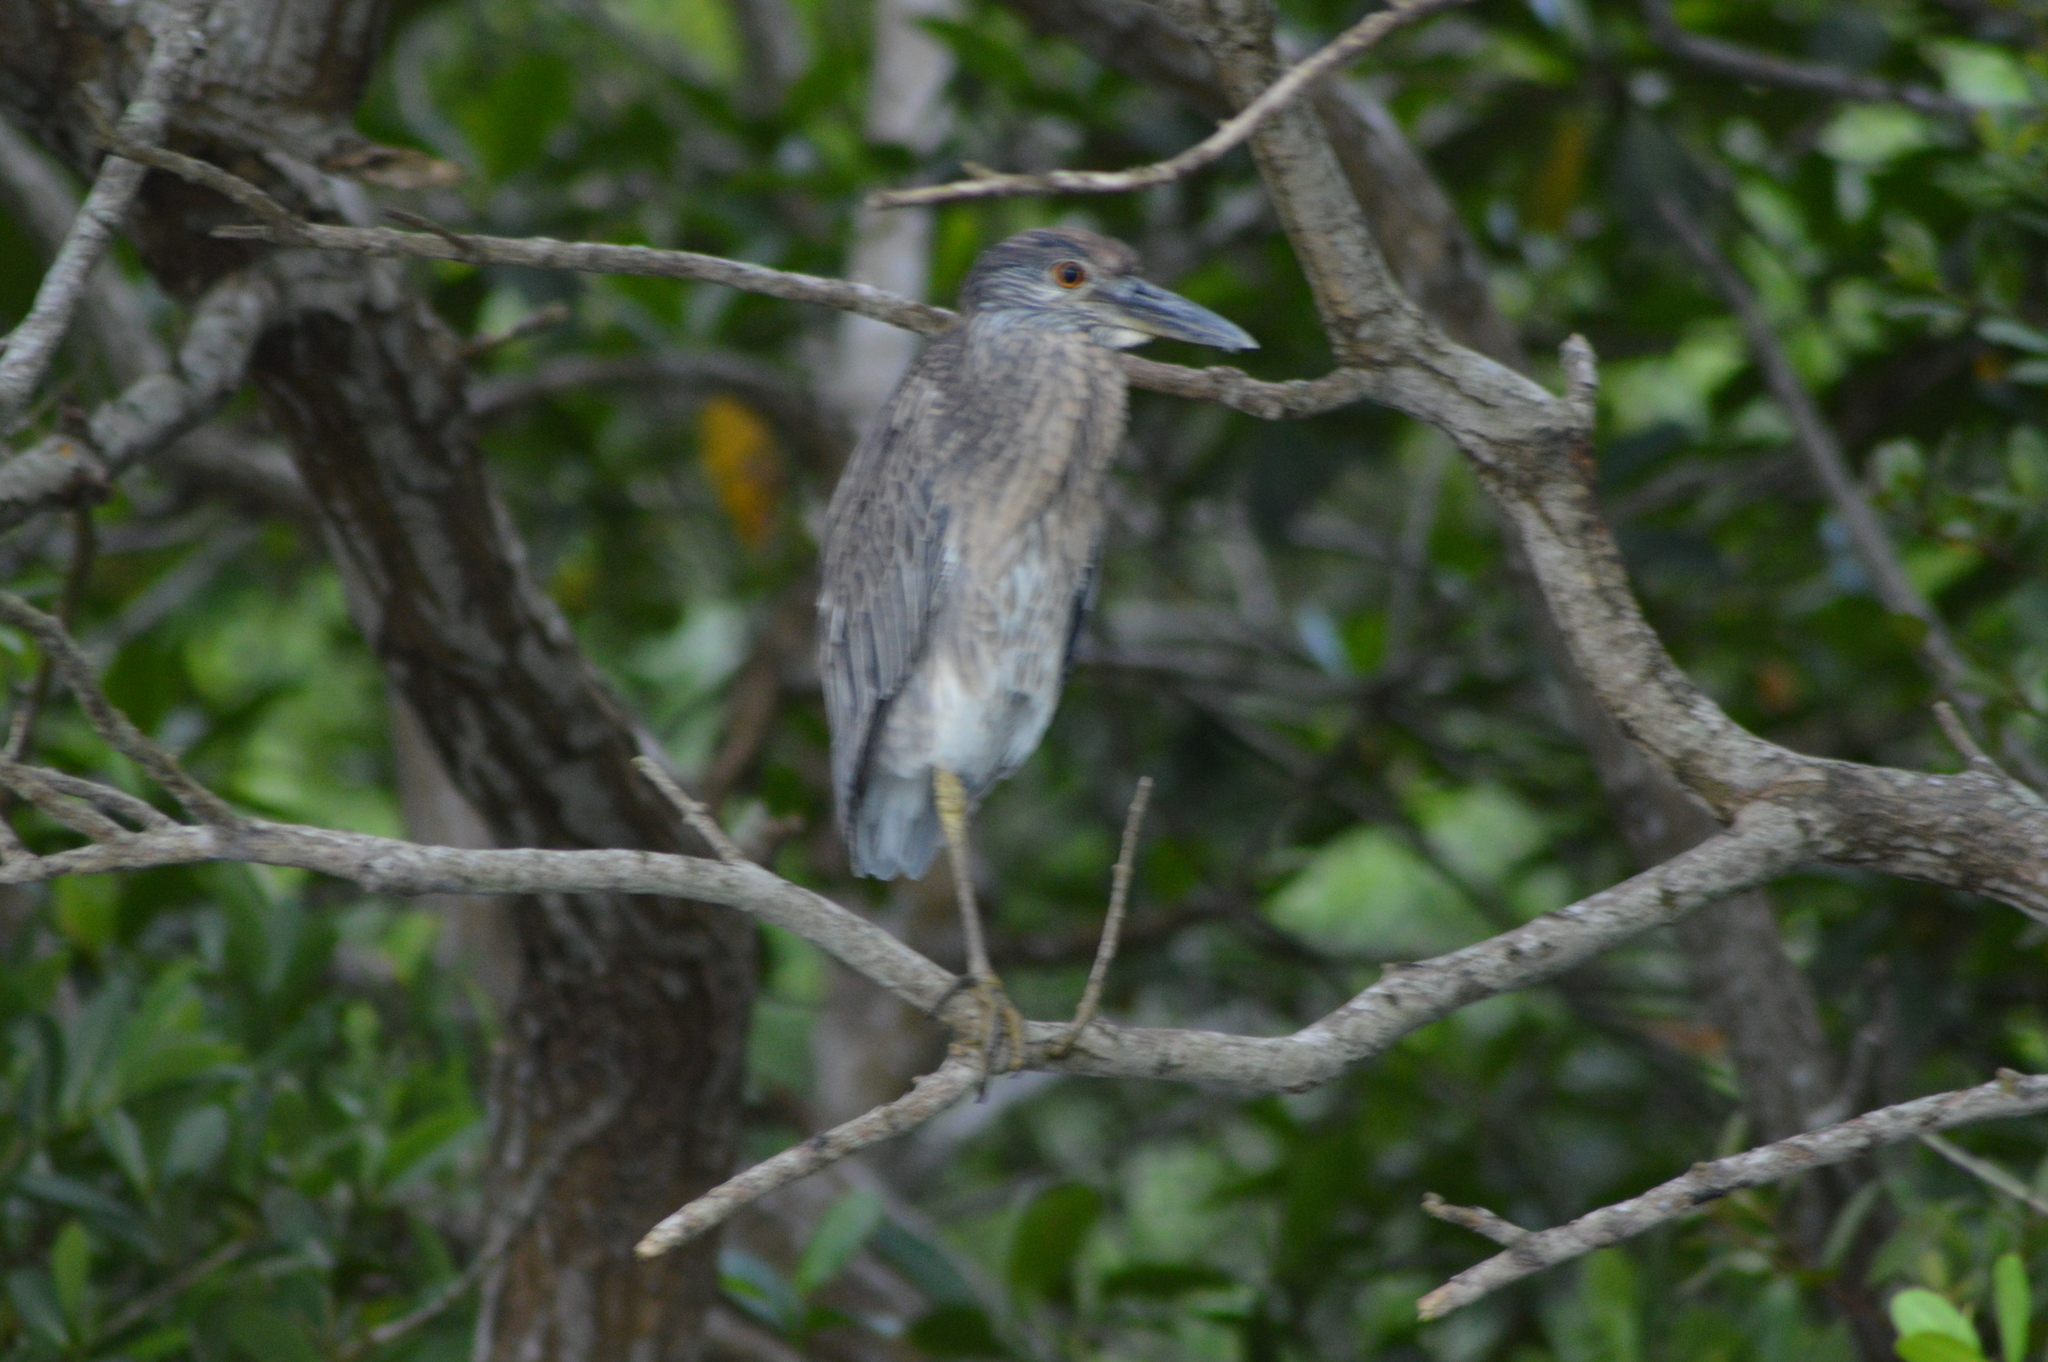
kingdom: Animalia
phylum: Chordata
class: Aves
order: Pelecaniformes
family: Ardeidae
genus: Nyctanassa
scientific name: Nyctanassa violacea
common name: Yellow-crowned night heron
